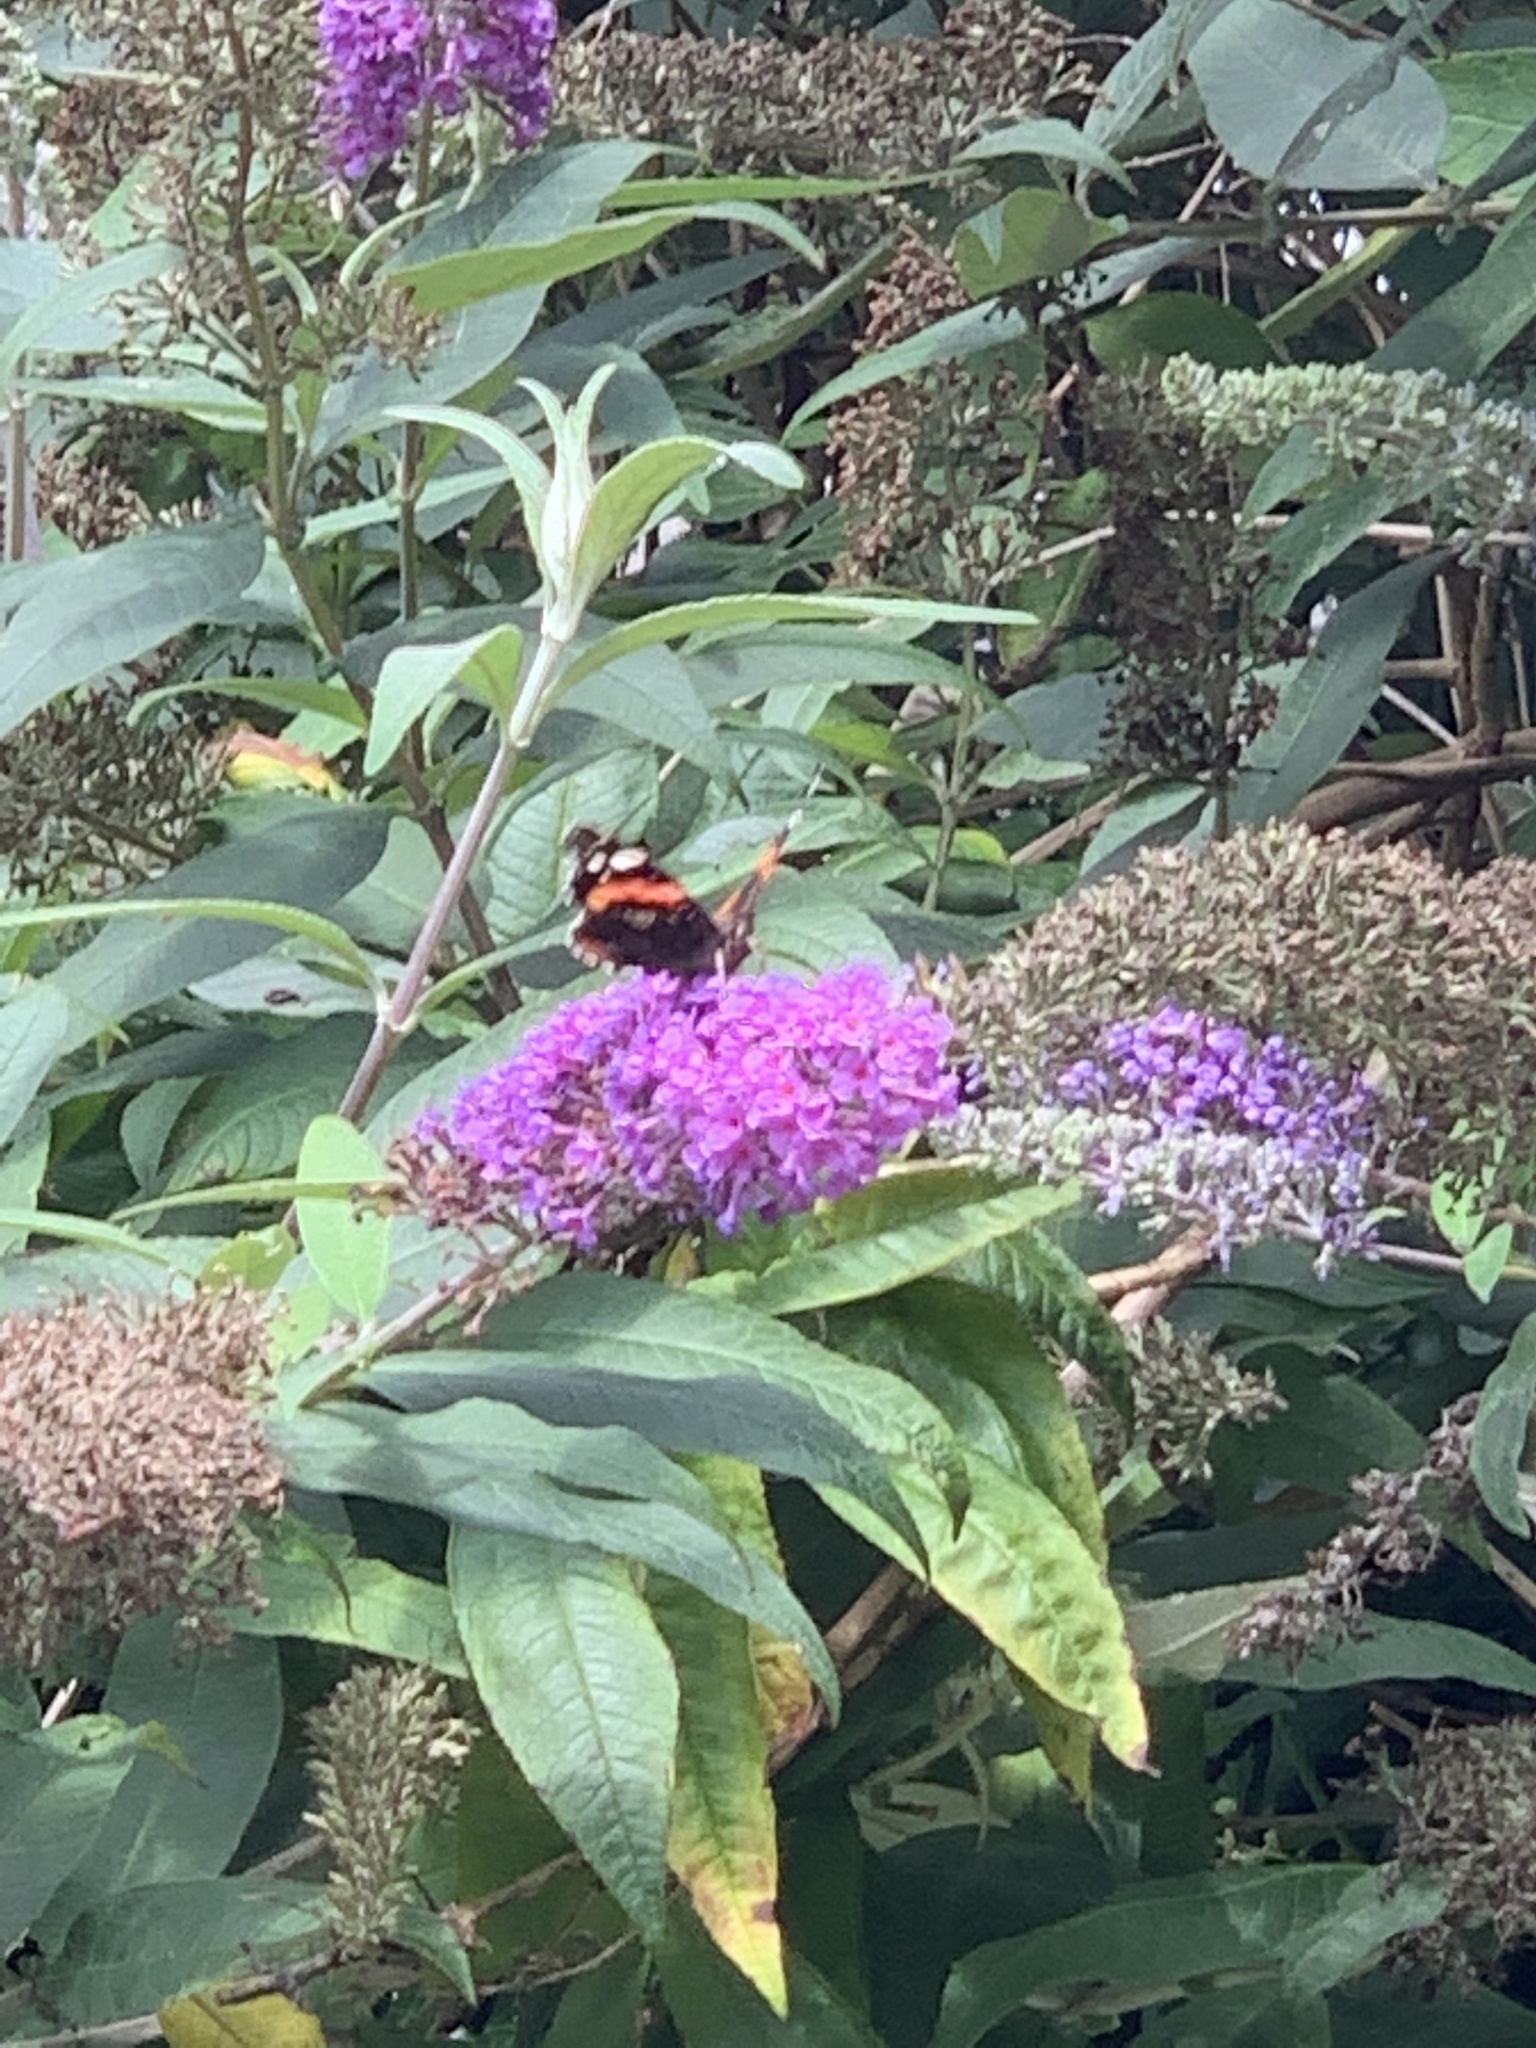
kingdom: Animalia
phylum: Arthropoda
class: Insecta
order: Lepidoptera
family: Nymphalidae
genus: Vanessa
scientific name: Vanessa atalanta
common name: Red admiral
